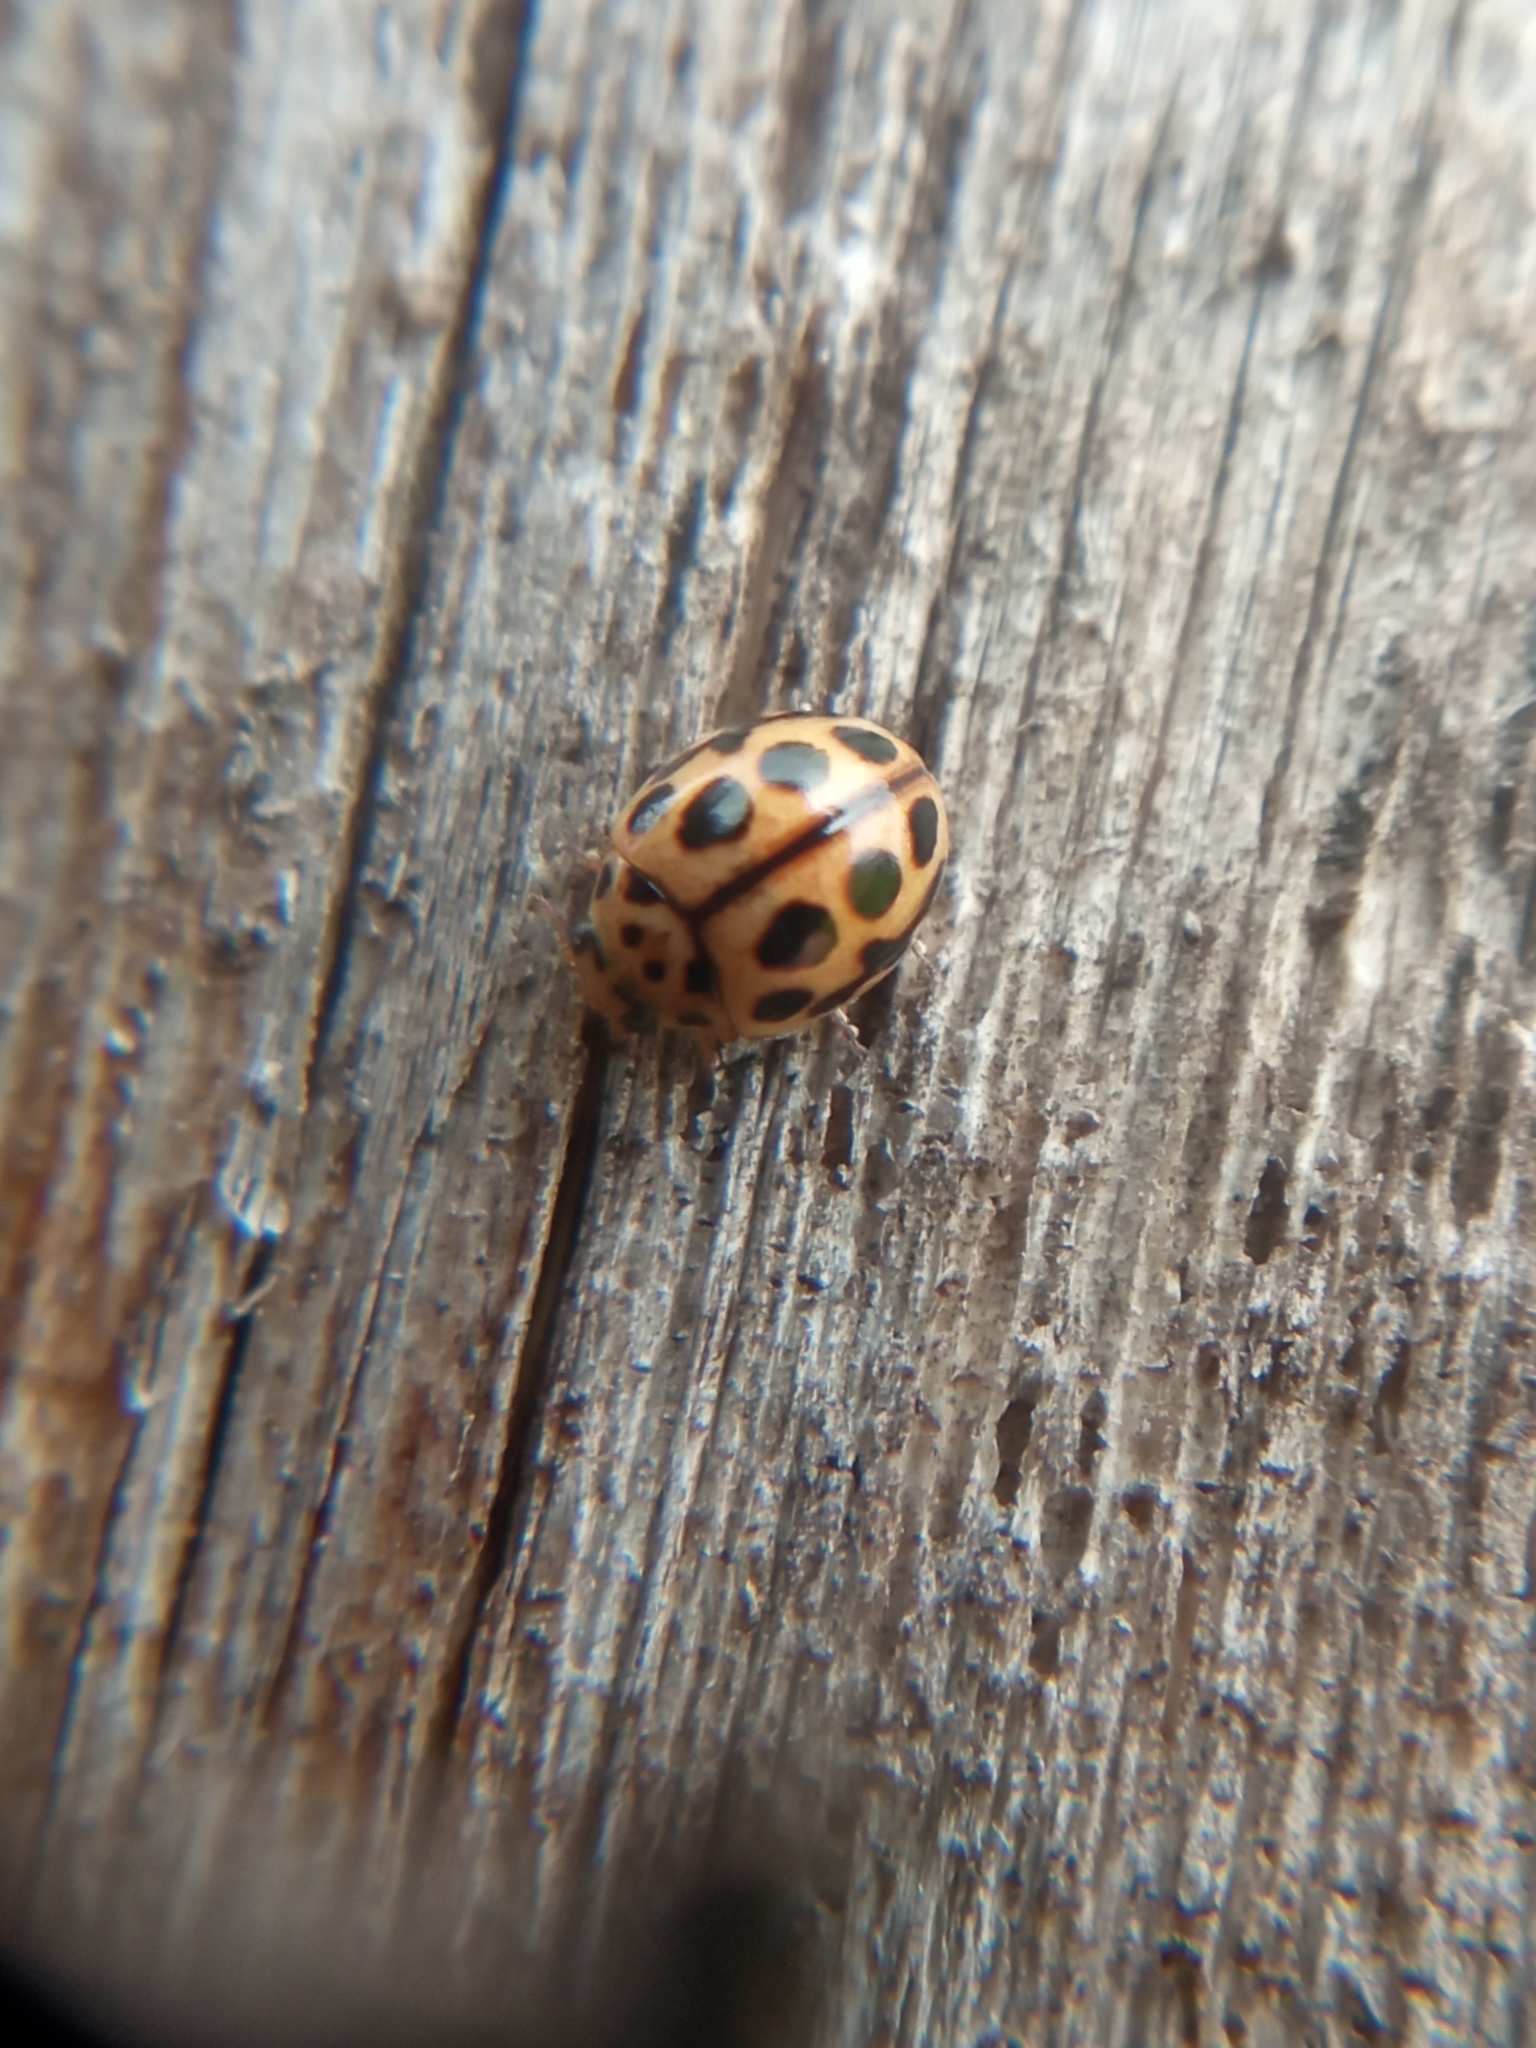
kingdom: Animalia
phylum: Arthropoda
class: Insecta
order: Coleoptera
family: Coccinellidae
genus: Tytthaspis
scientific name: Tytthaspis sedecimpunctata
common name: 16-spot ladybird
